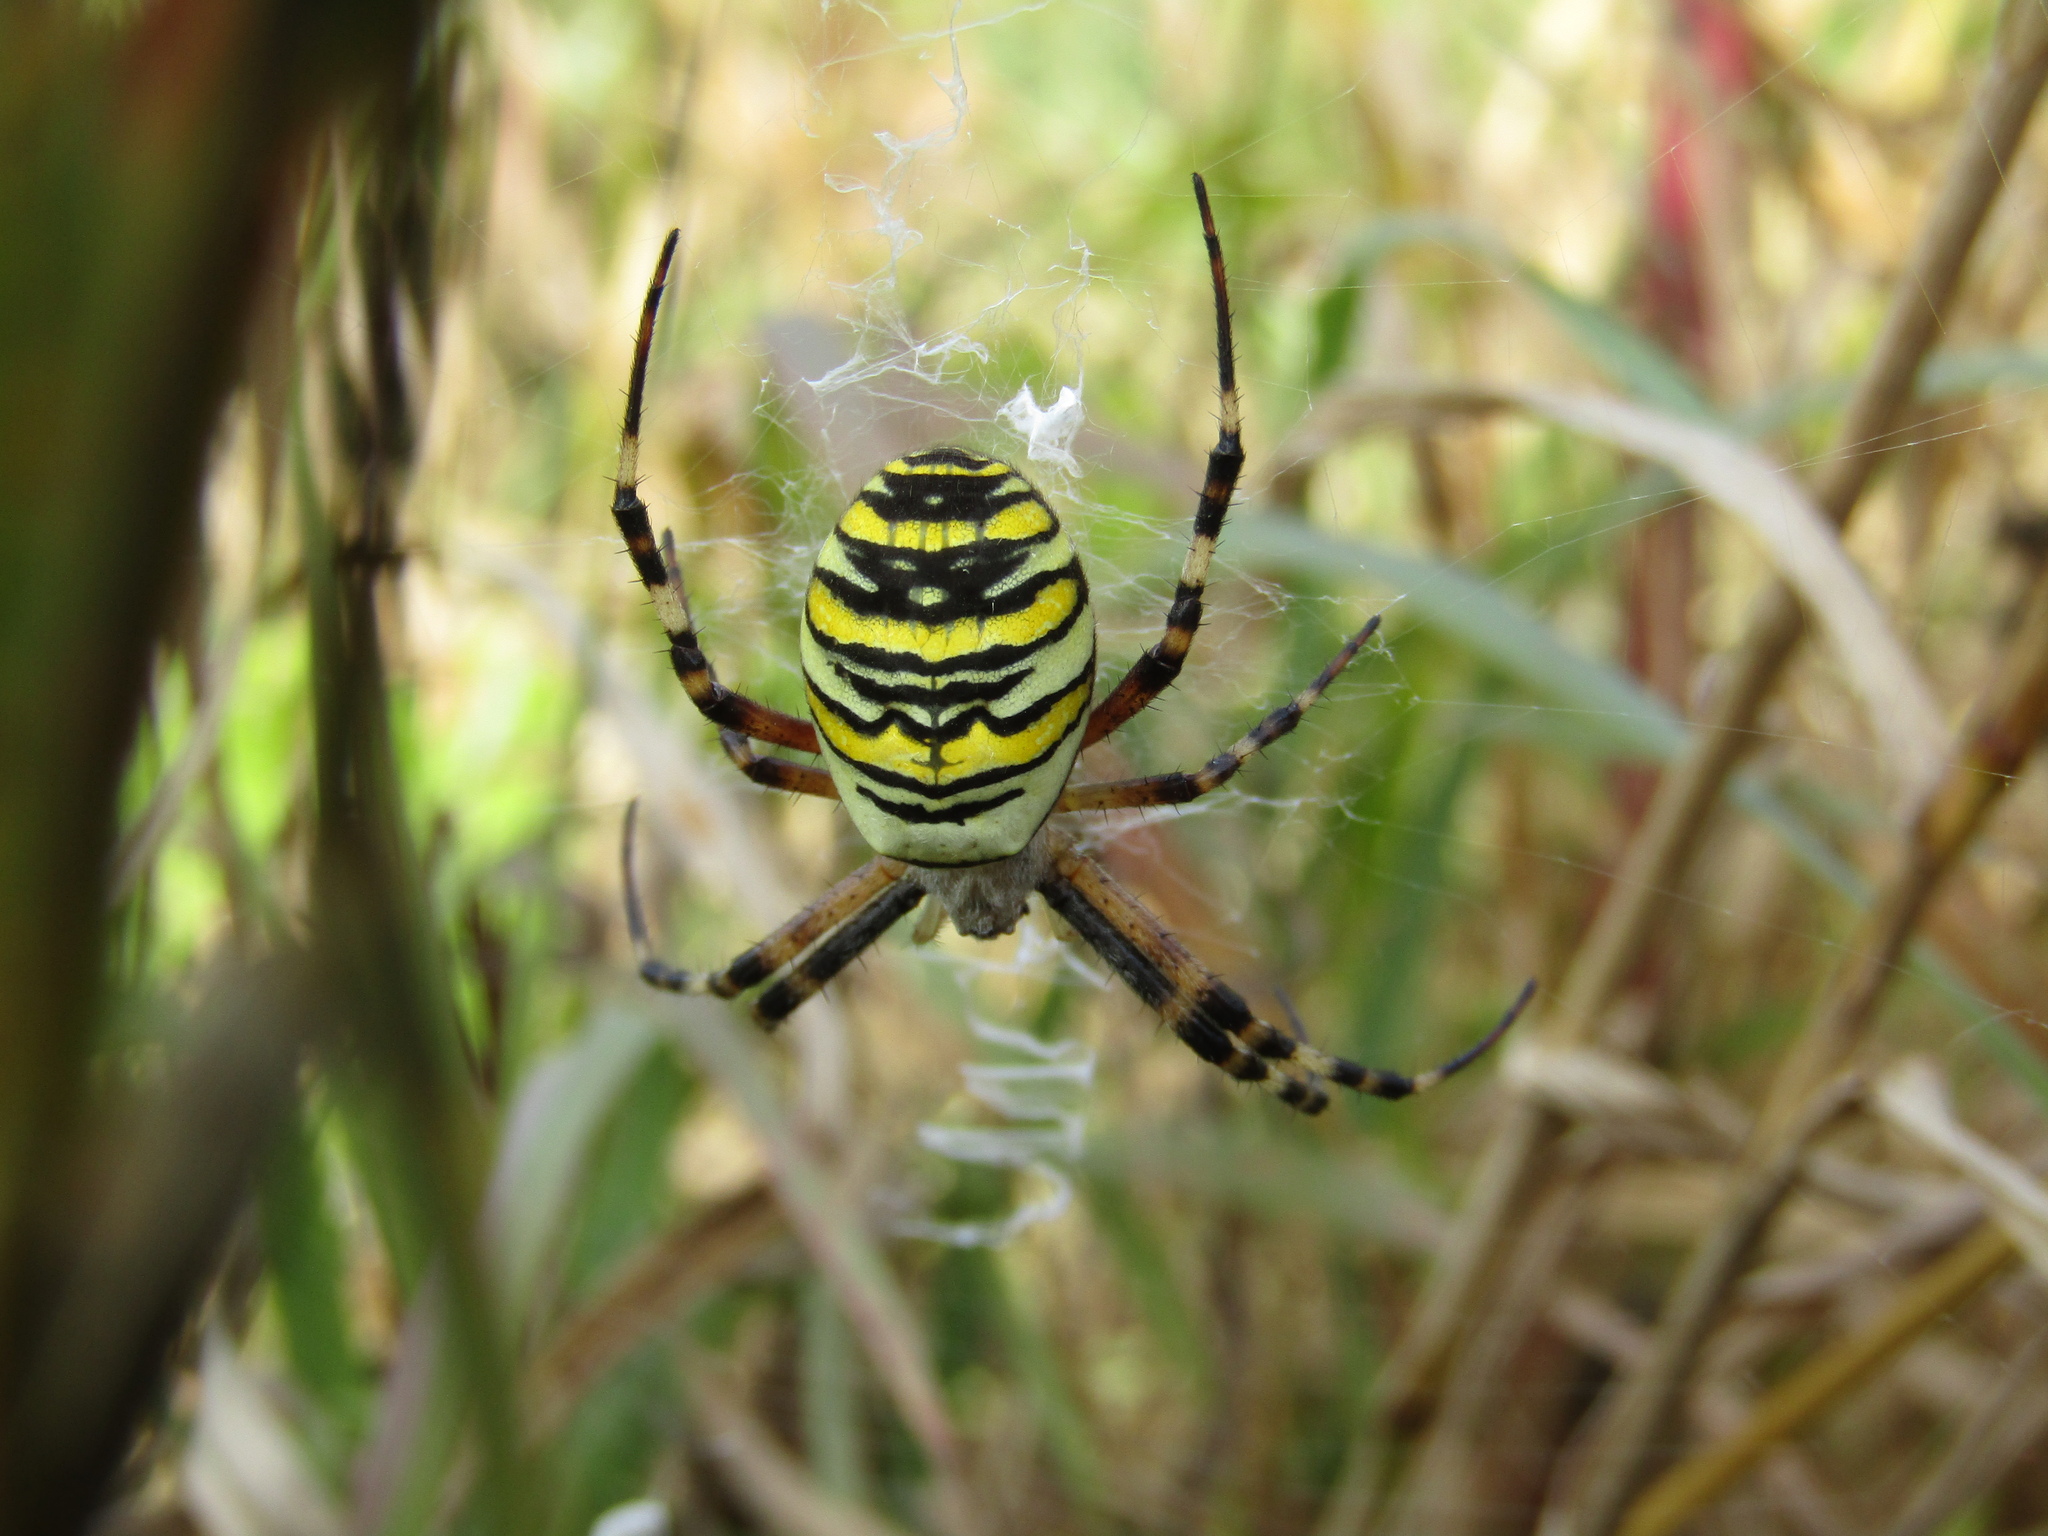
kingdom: Animalia
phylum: Arthropoda
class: Arachnida
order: Araneae
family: Araneidae
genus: Argiope
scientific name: Argiope bruennichi
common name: Wasp spider
